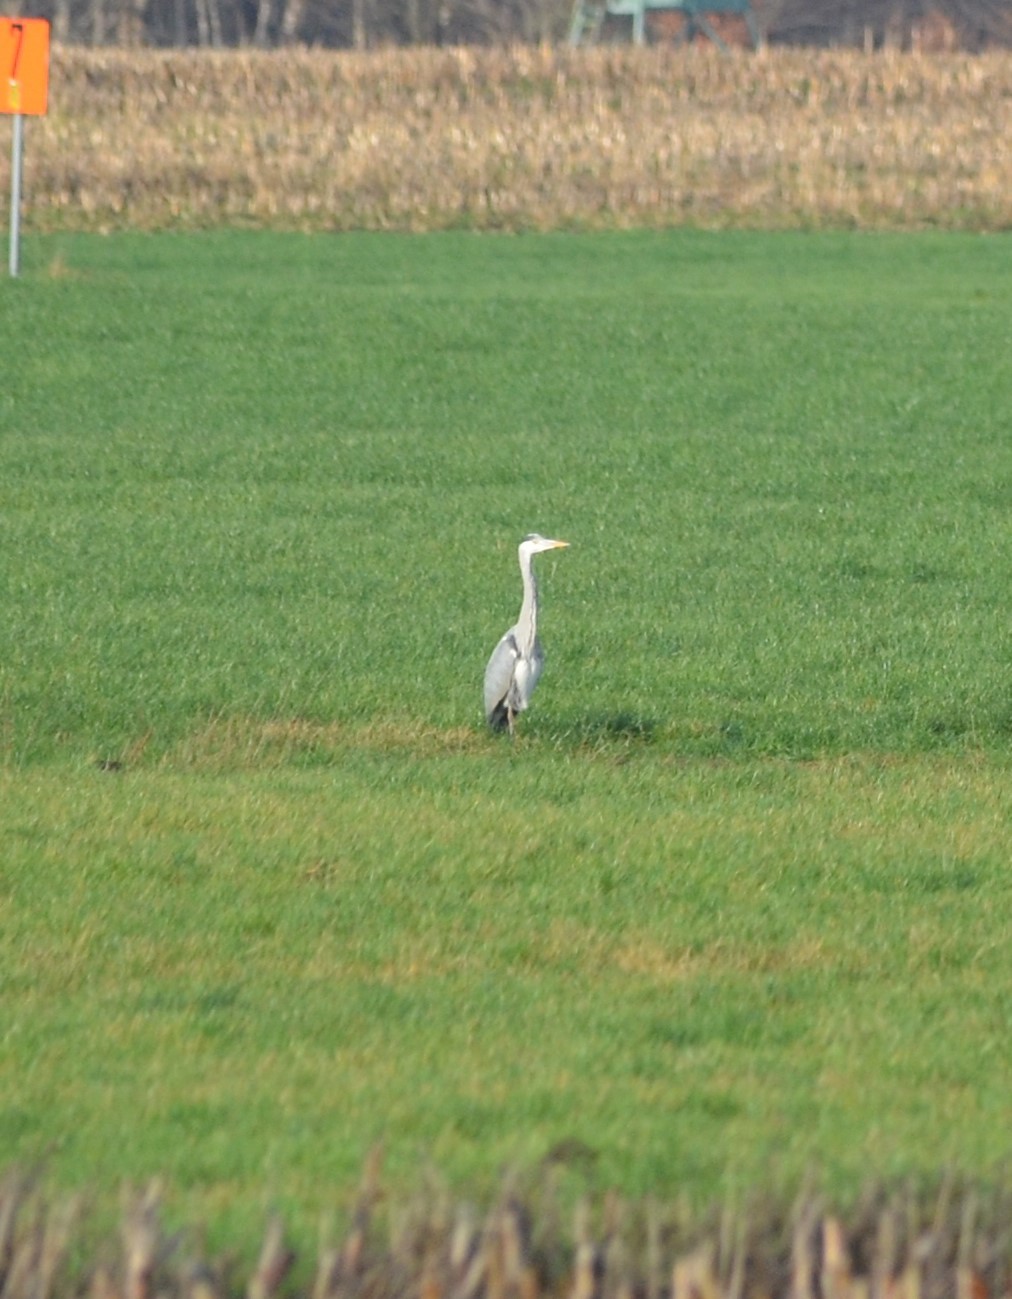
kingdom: Animalia
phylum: Chordata
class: Aves
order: Pelecaniformes
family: Ardeidae
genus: Ardea
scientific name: Ardea cinerea
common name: Grey heron
